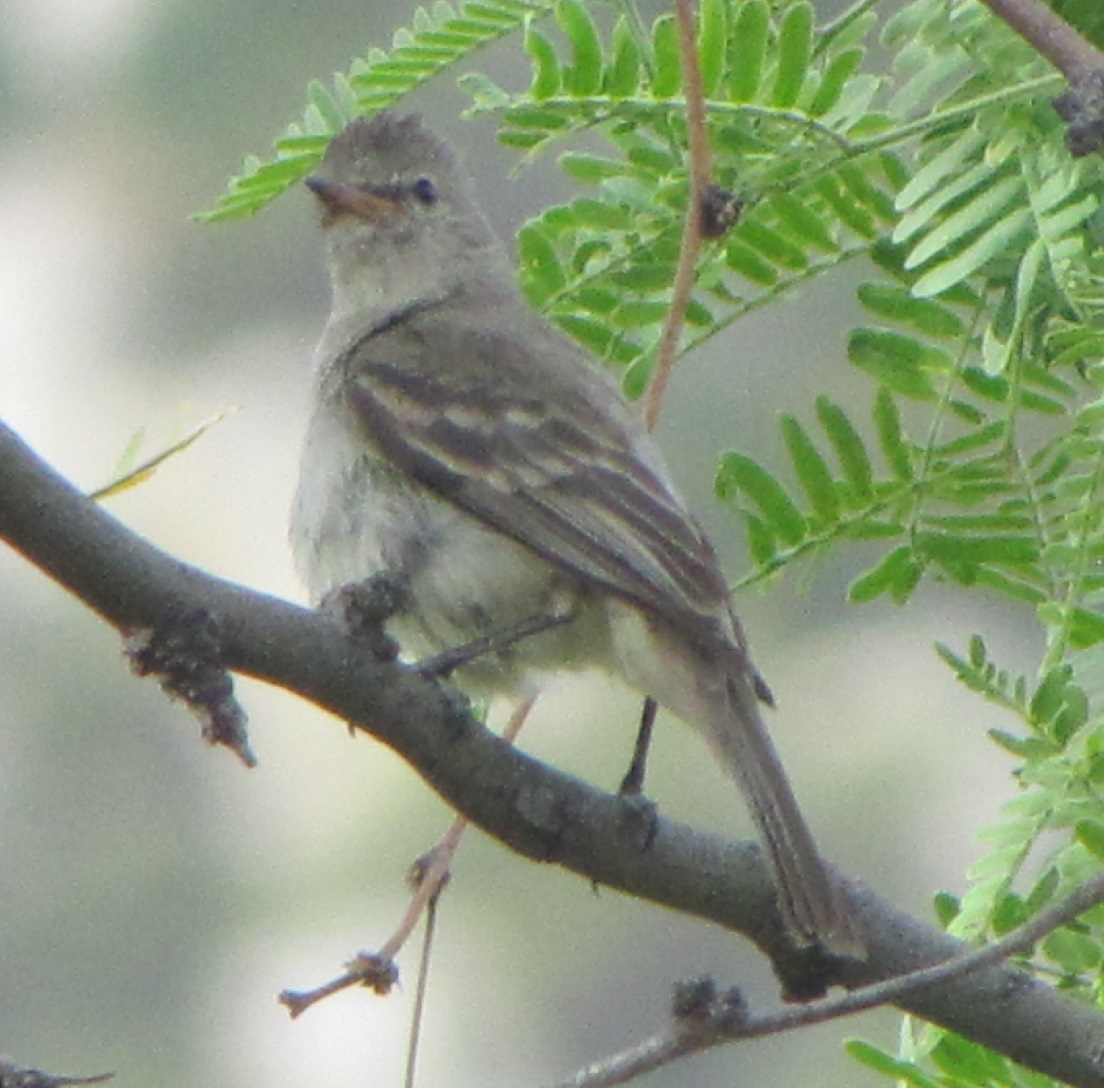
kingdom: Animalia
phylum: Chordata
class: Aves
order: Passeriformes
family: Tyrannidae
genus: Camptostoma
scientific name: Camptostoma imberbe
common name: Northern beardless-tyrannulet
